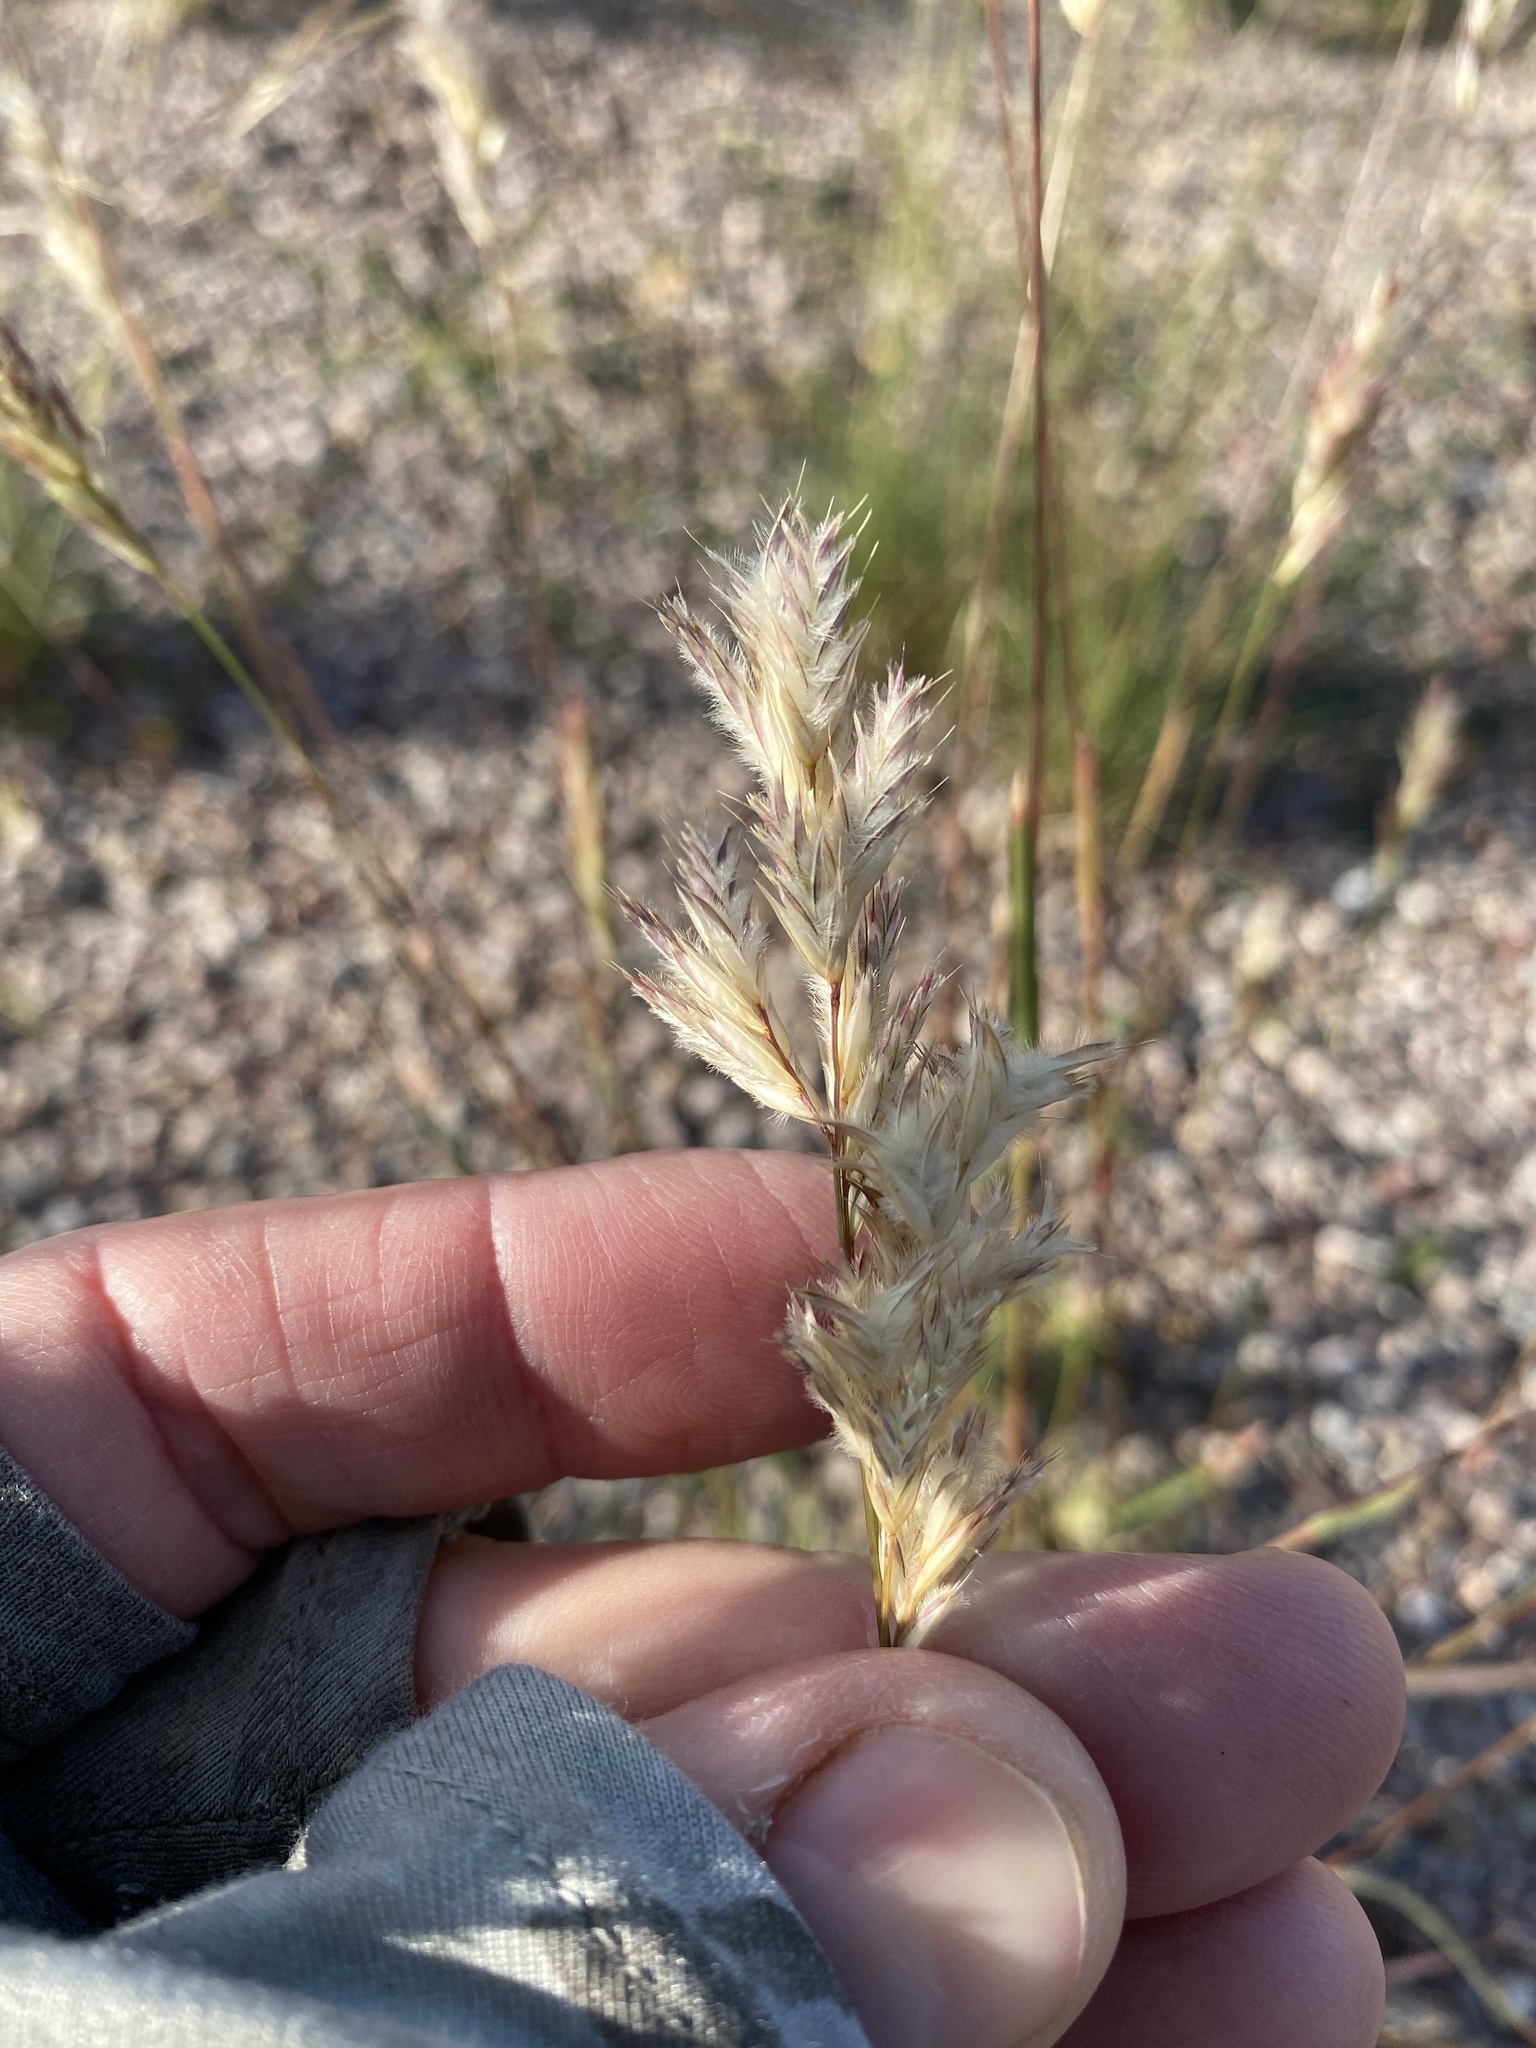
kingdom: Plantae
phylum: Tracheophyta
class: Liliopsida
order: Poales
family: Poaceae
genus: Erioneuron
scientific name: Erioneuron avenaceum
